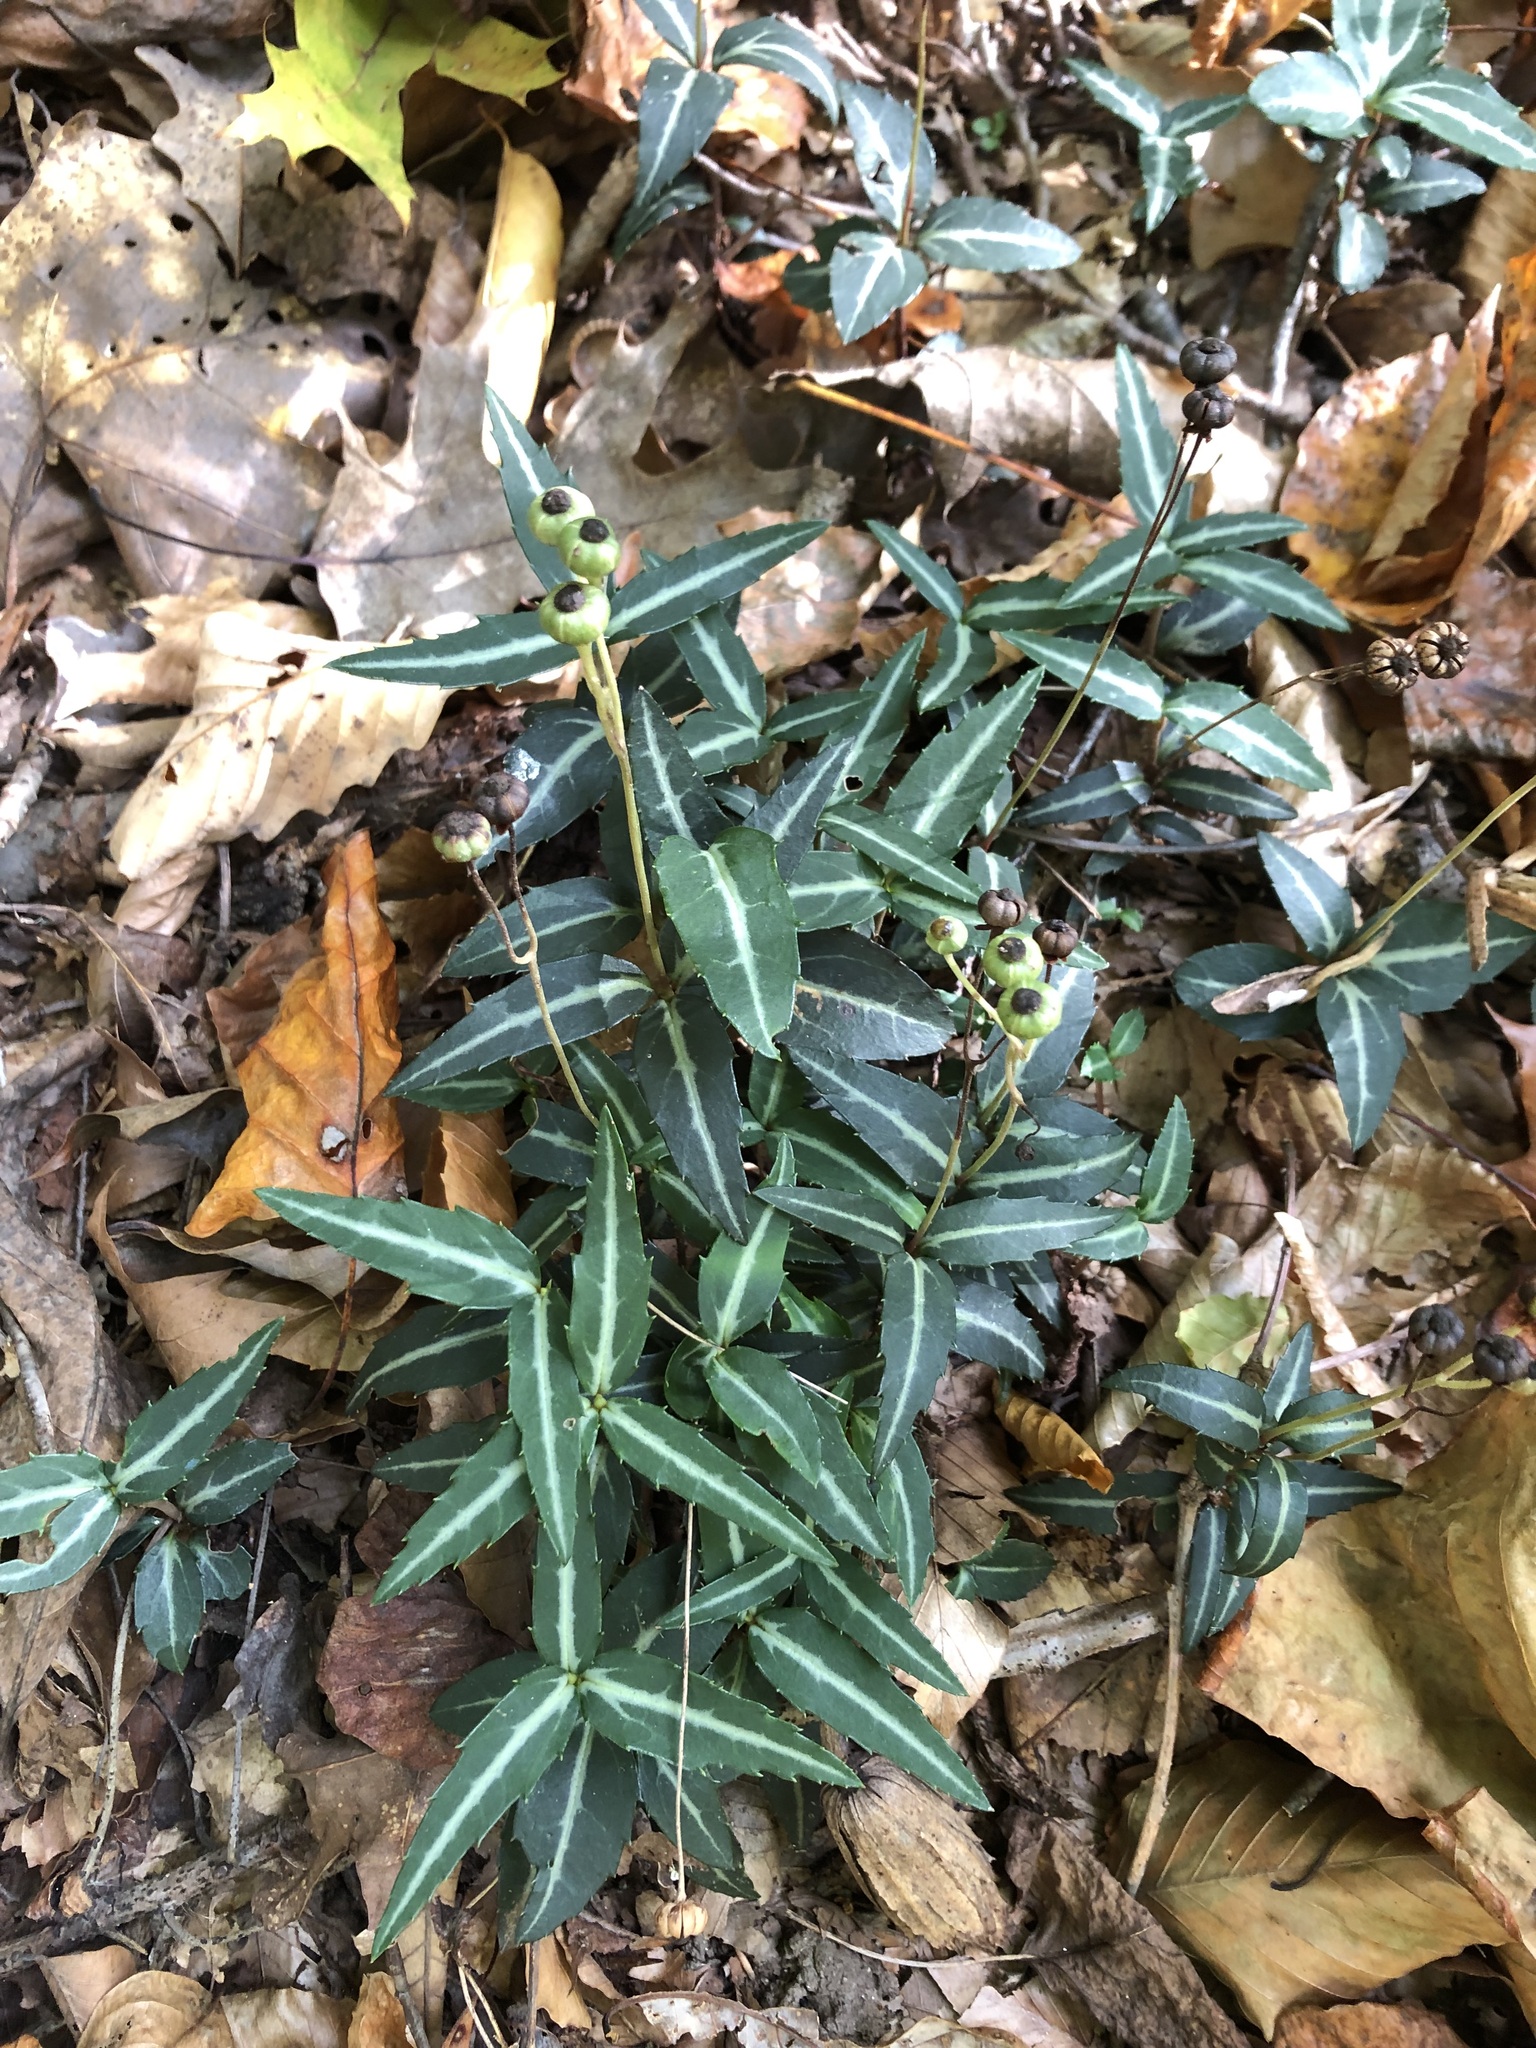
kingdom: Plantae
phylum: Tracheophyta
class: Magnoliopsida
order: Ericales
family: Ericaceae
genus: Chimaphila
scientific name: Chimaphila maculata
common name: Spotted pipsissewa
